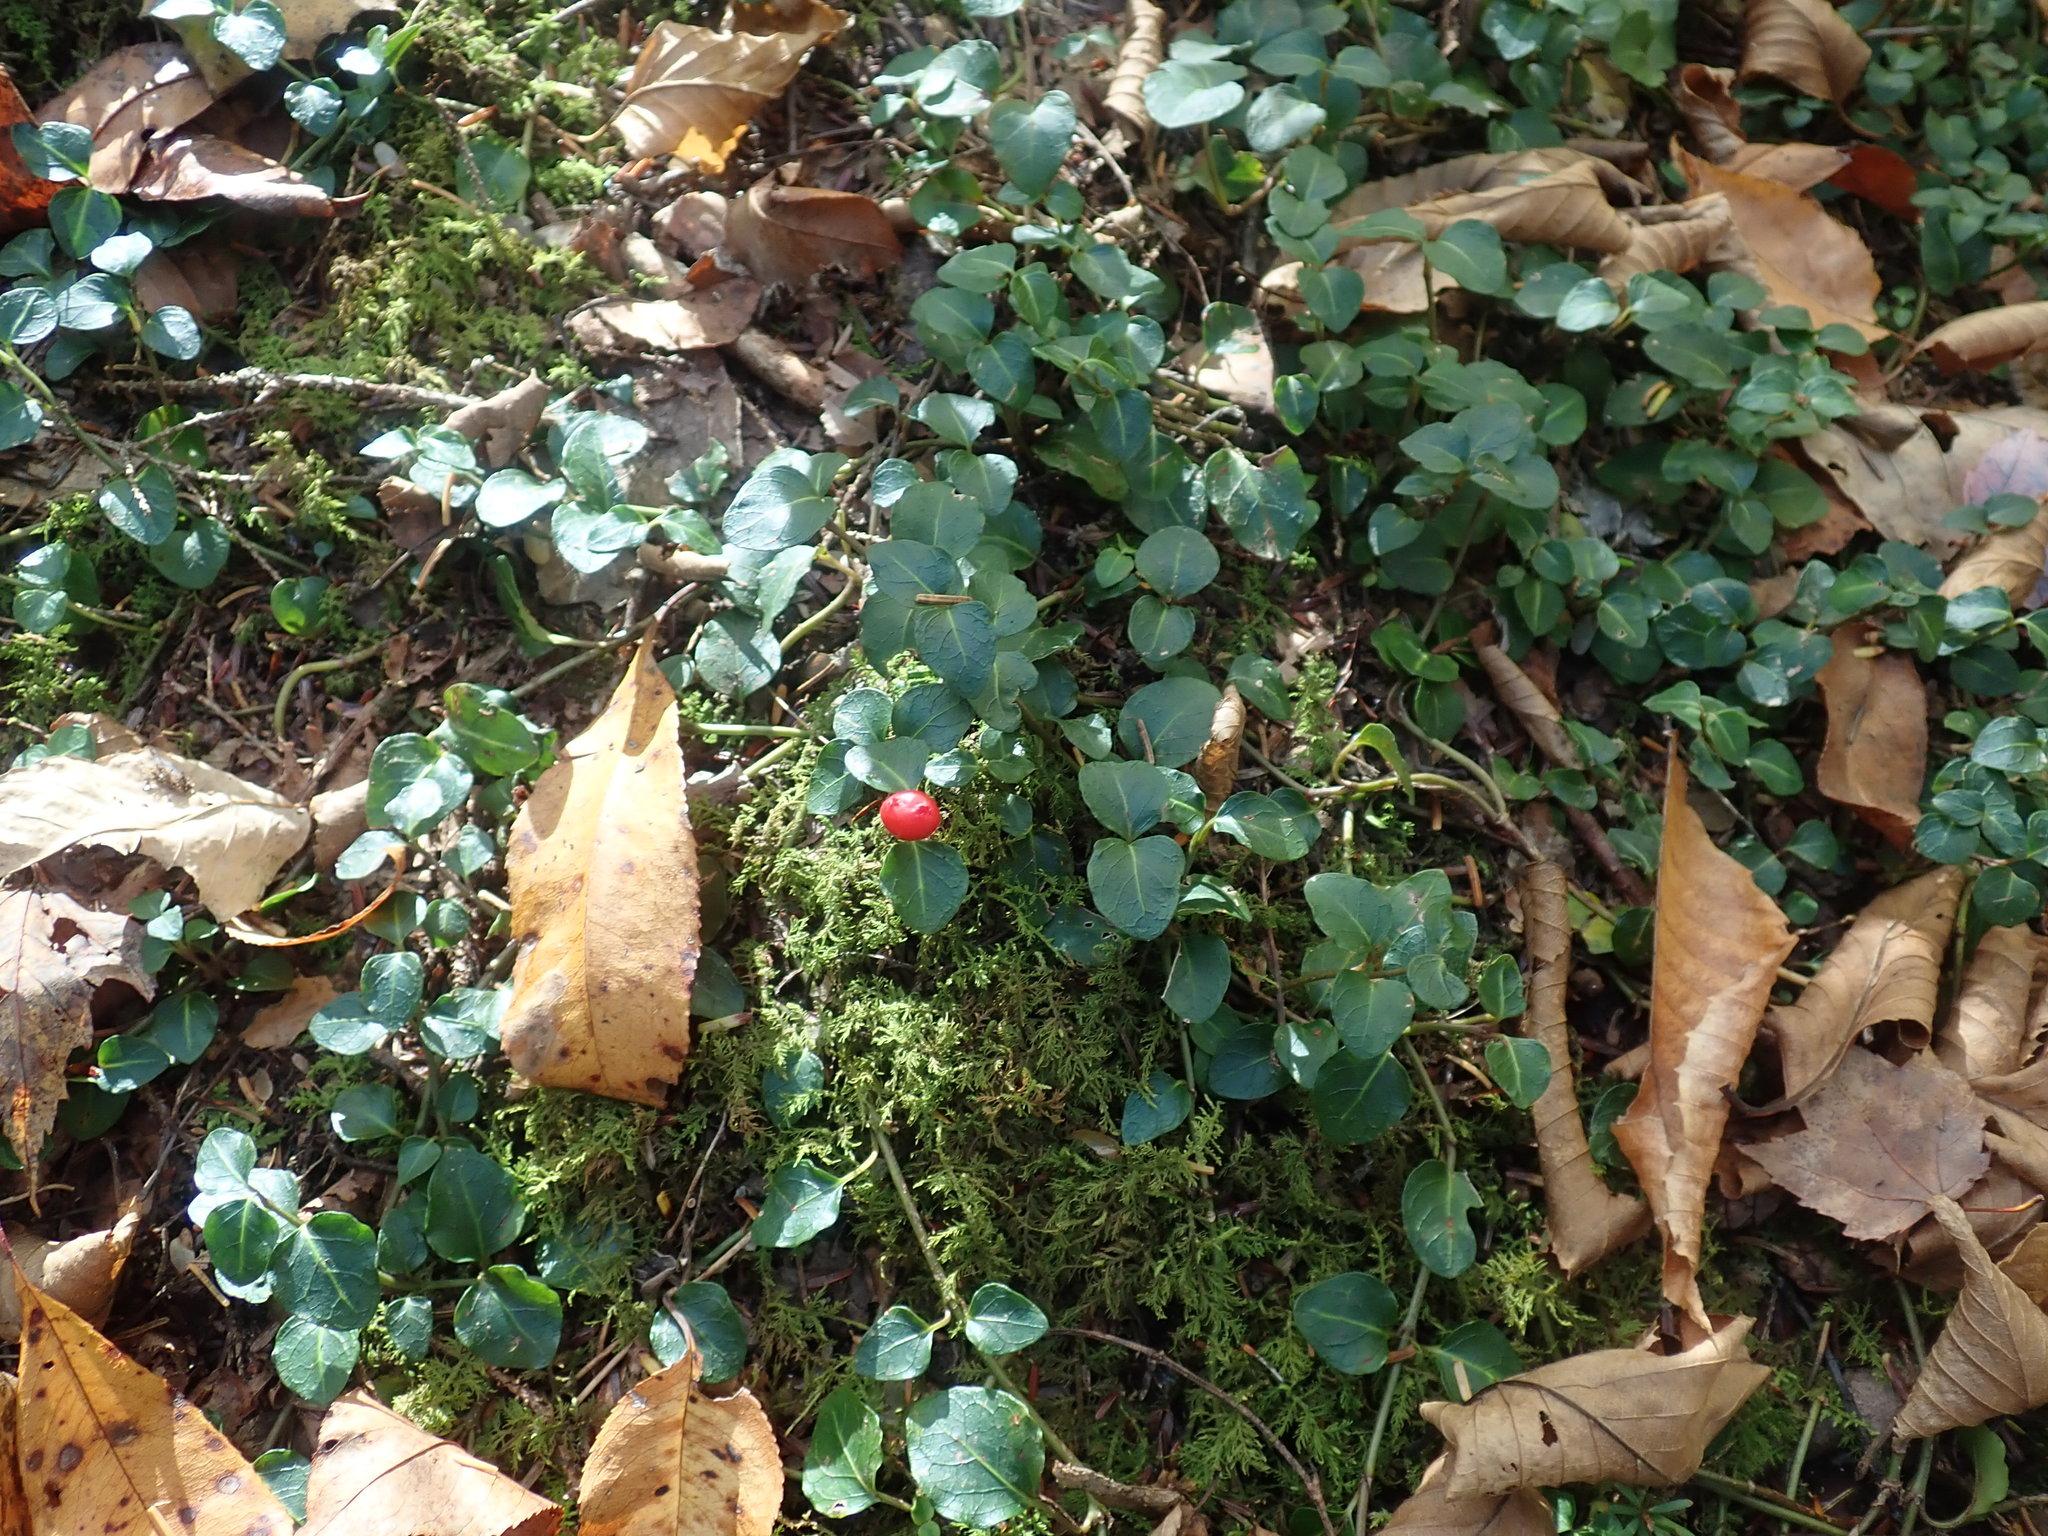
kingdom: Plantae
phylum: Tracheophyta
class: Magnoliopsida
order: Gentianales
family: Rubiaceae
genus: Mitchella
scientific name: Mitchella repens
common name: Partridge-berry
